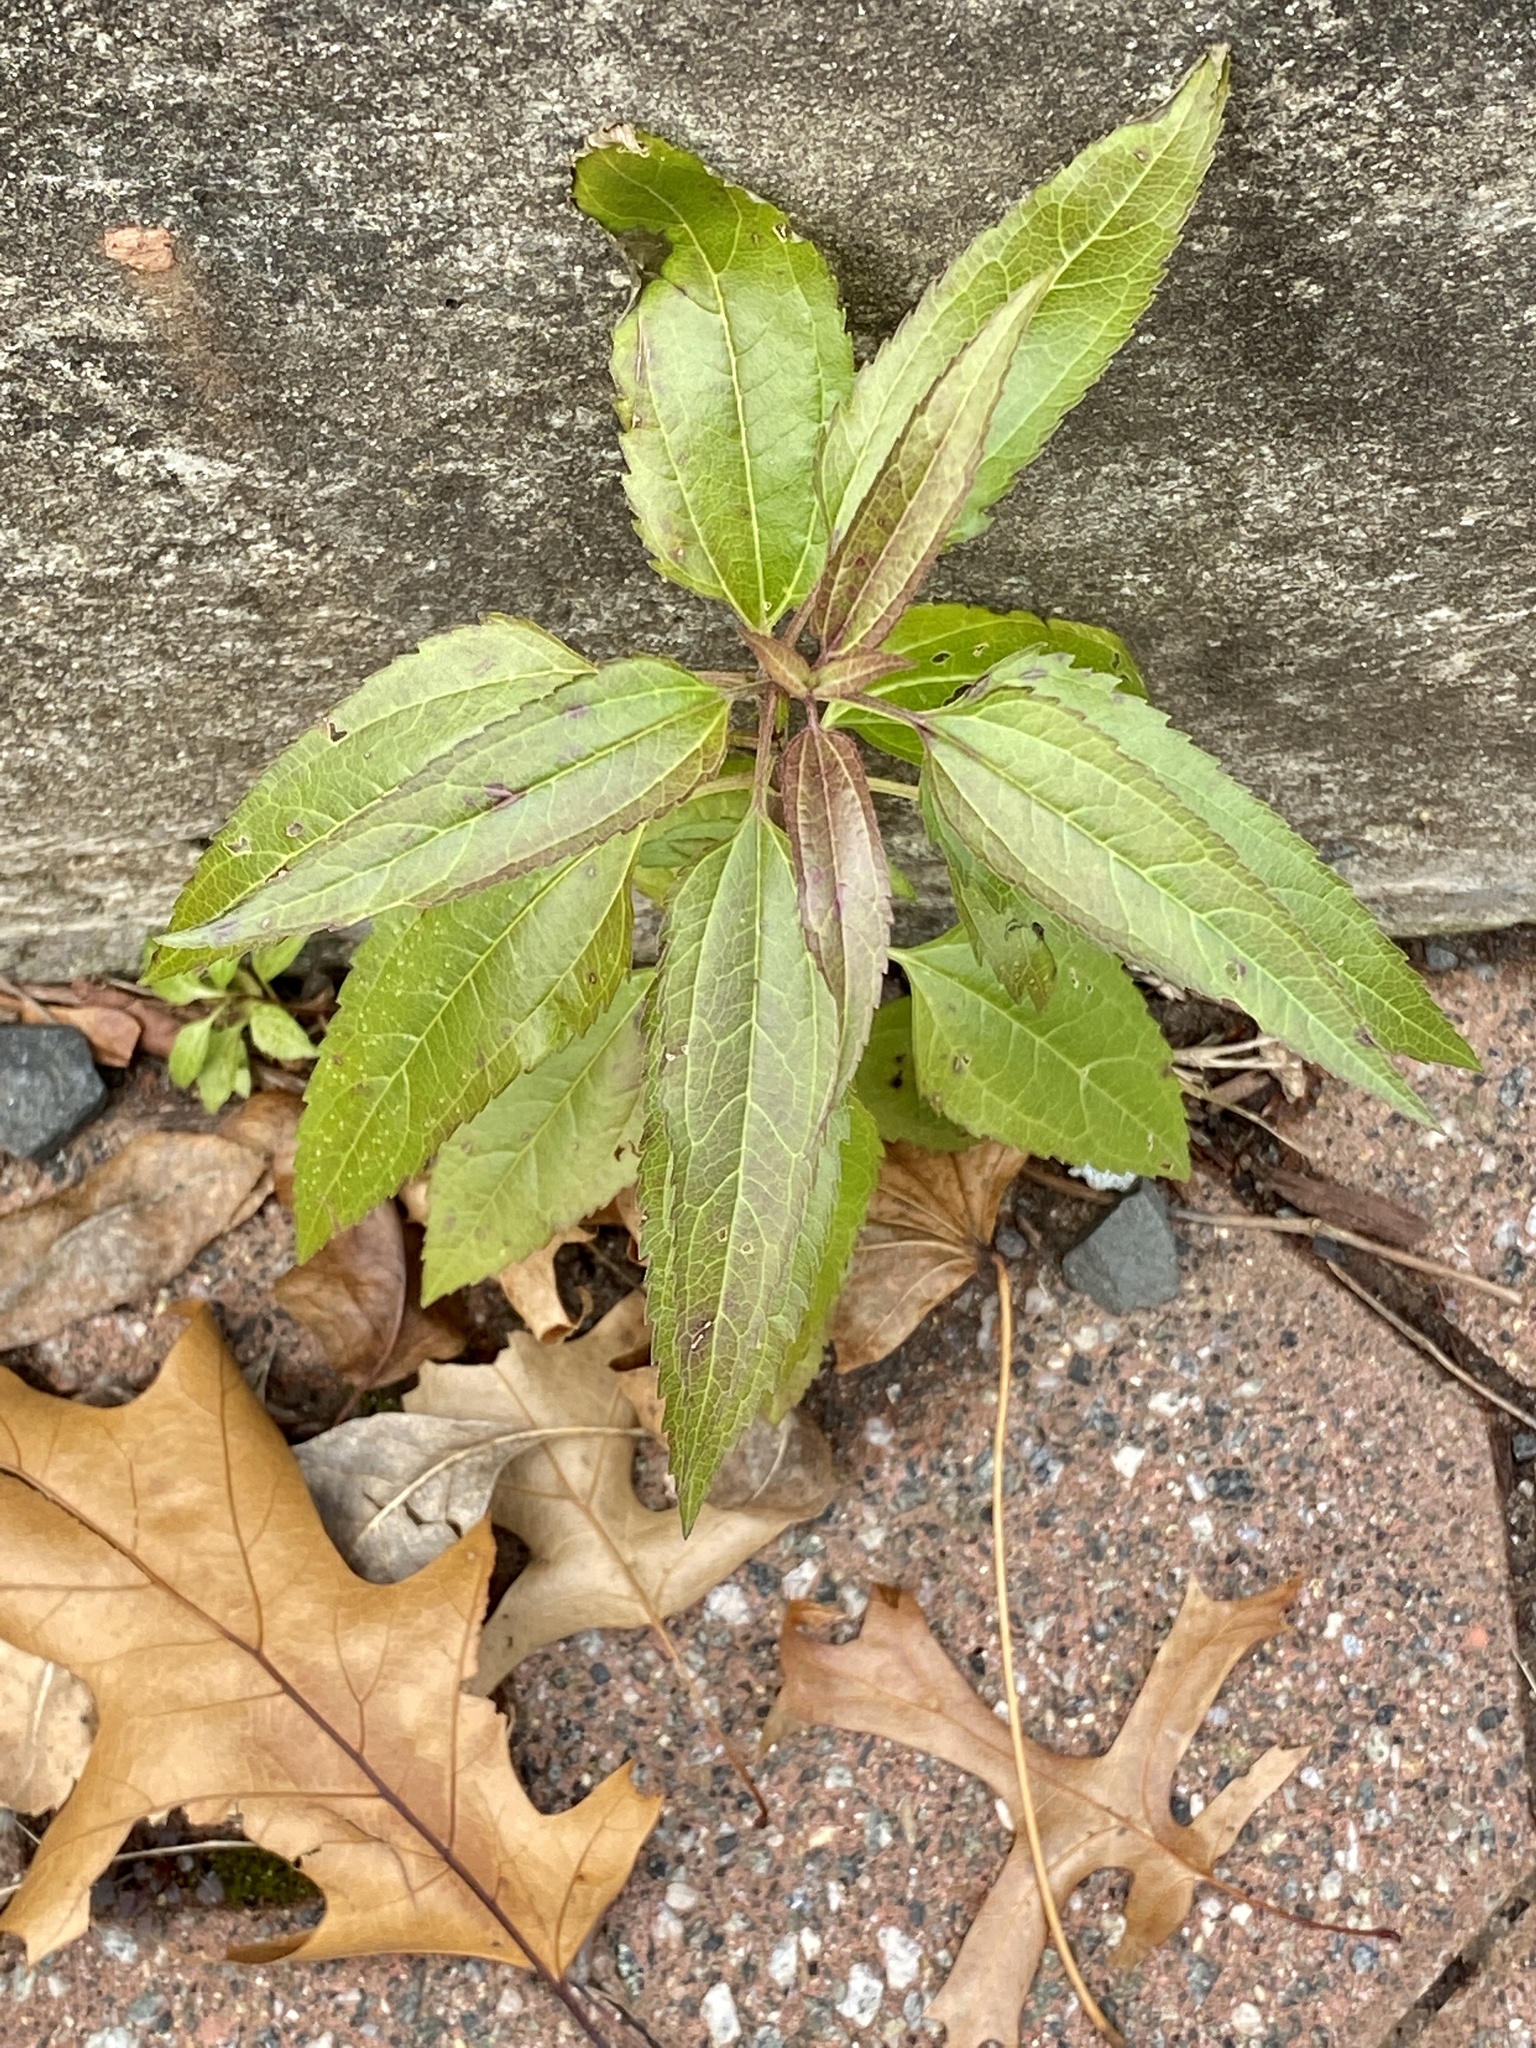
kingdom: Plantae
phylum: Tracheophyta
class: Magnoliopsida
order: Asterales
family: Asteraceae
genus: Eupatorium
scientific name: Eupatorium serotinum
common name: Late boneset
